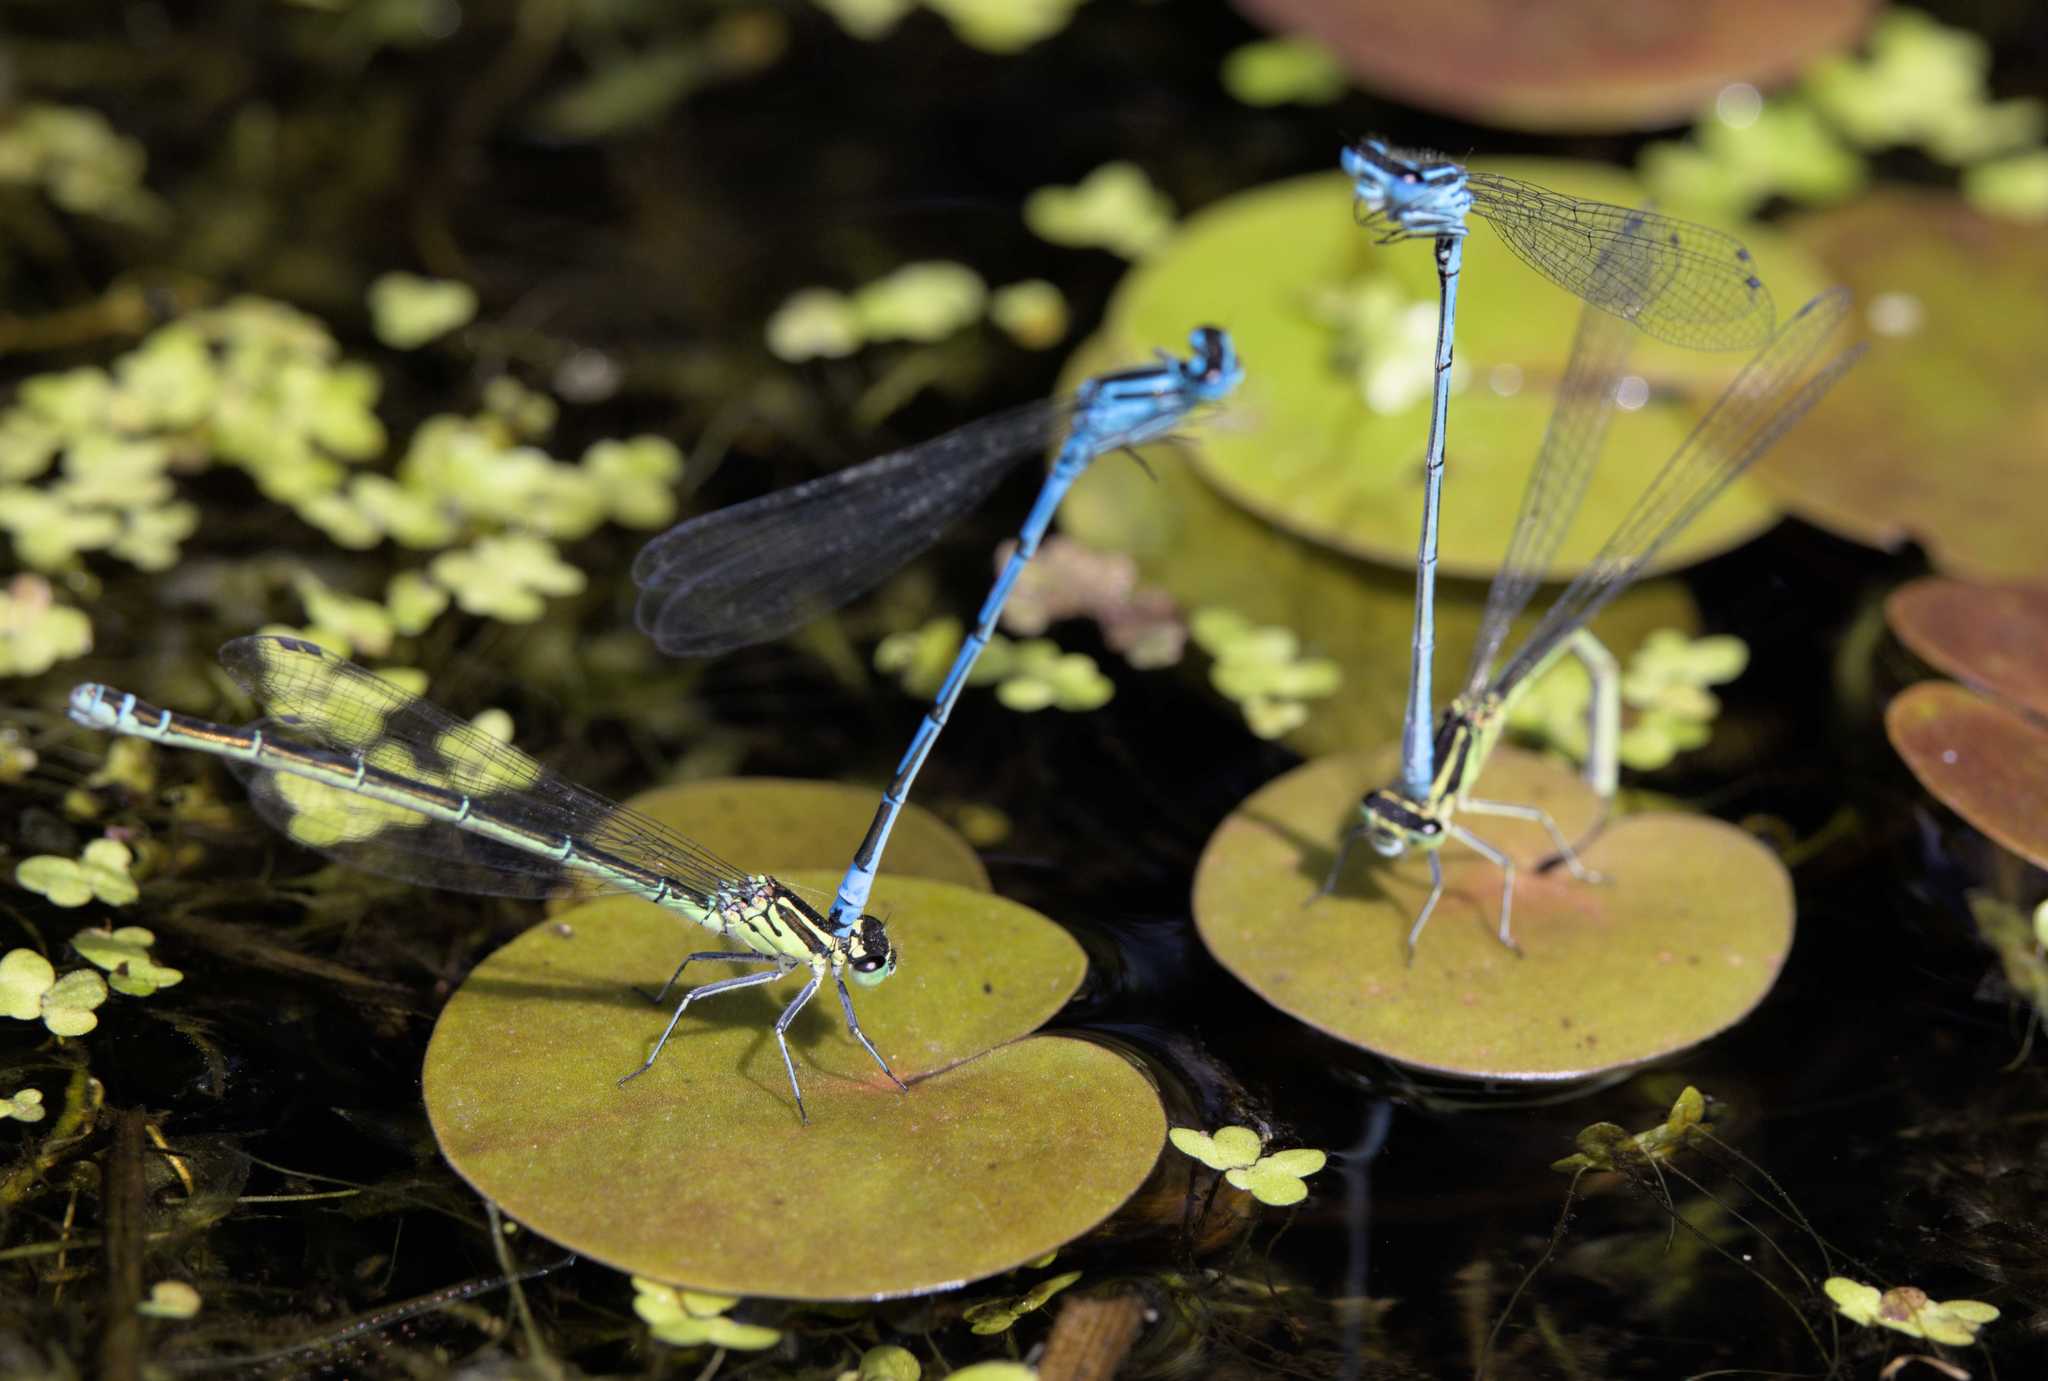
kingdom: Animalia
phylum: Arthropoda
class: Insecta
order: Odonata
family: Coenagrionidae
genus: Coenagrion
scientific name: Coenagrion puella
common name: Azure damselfly
